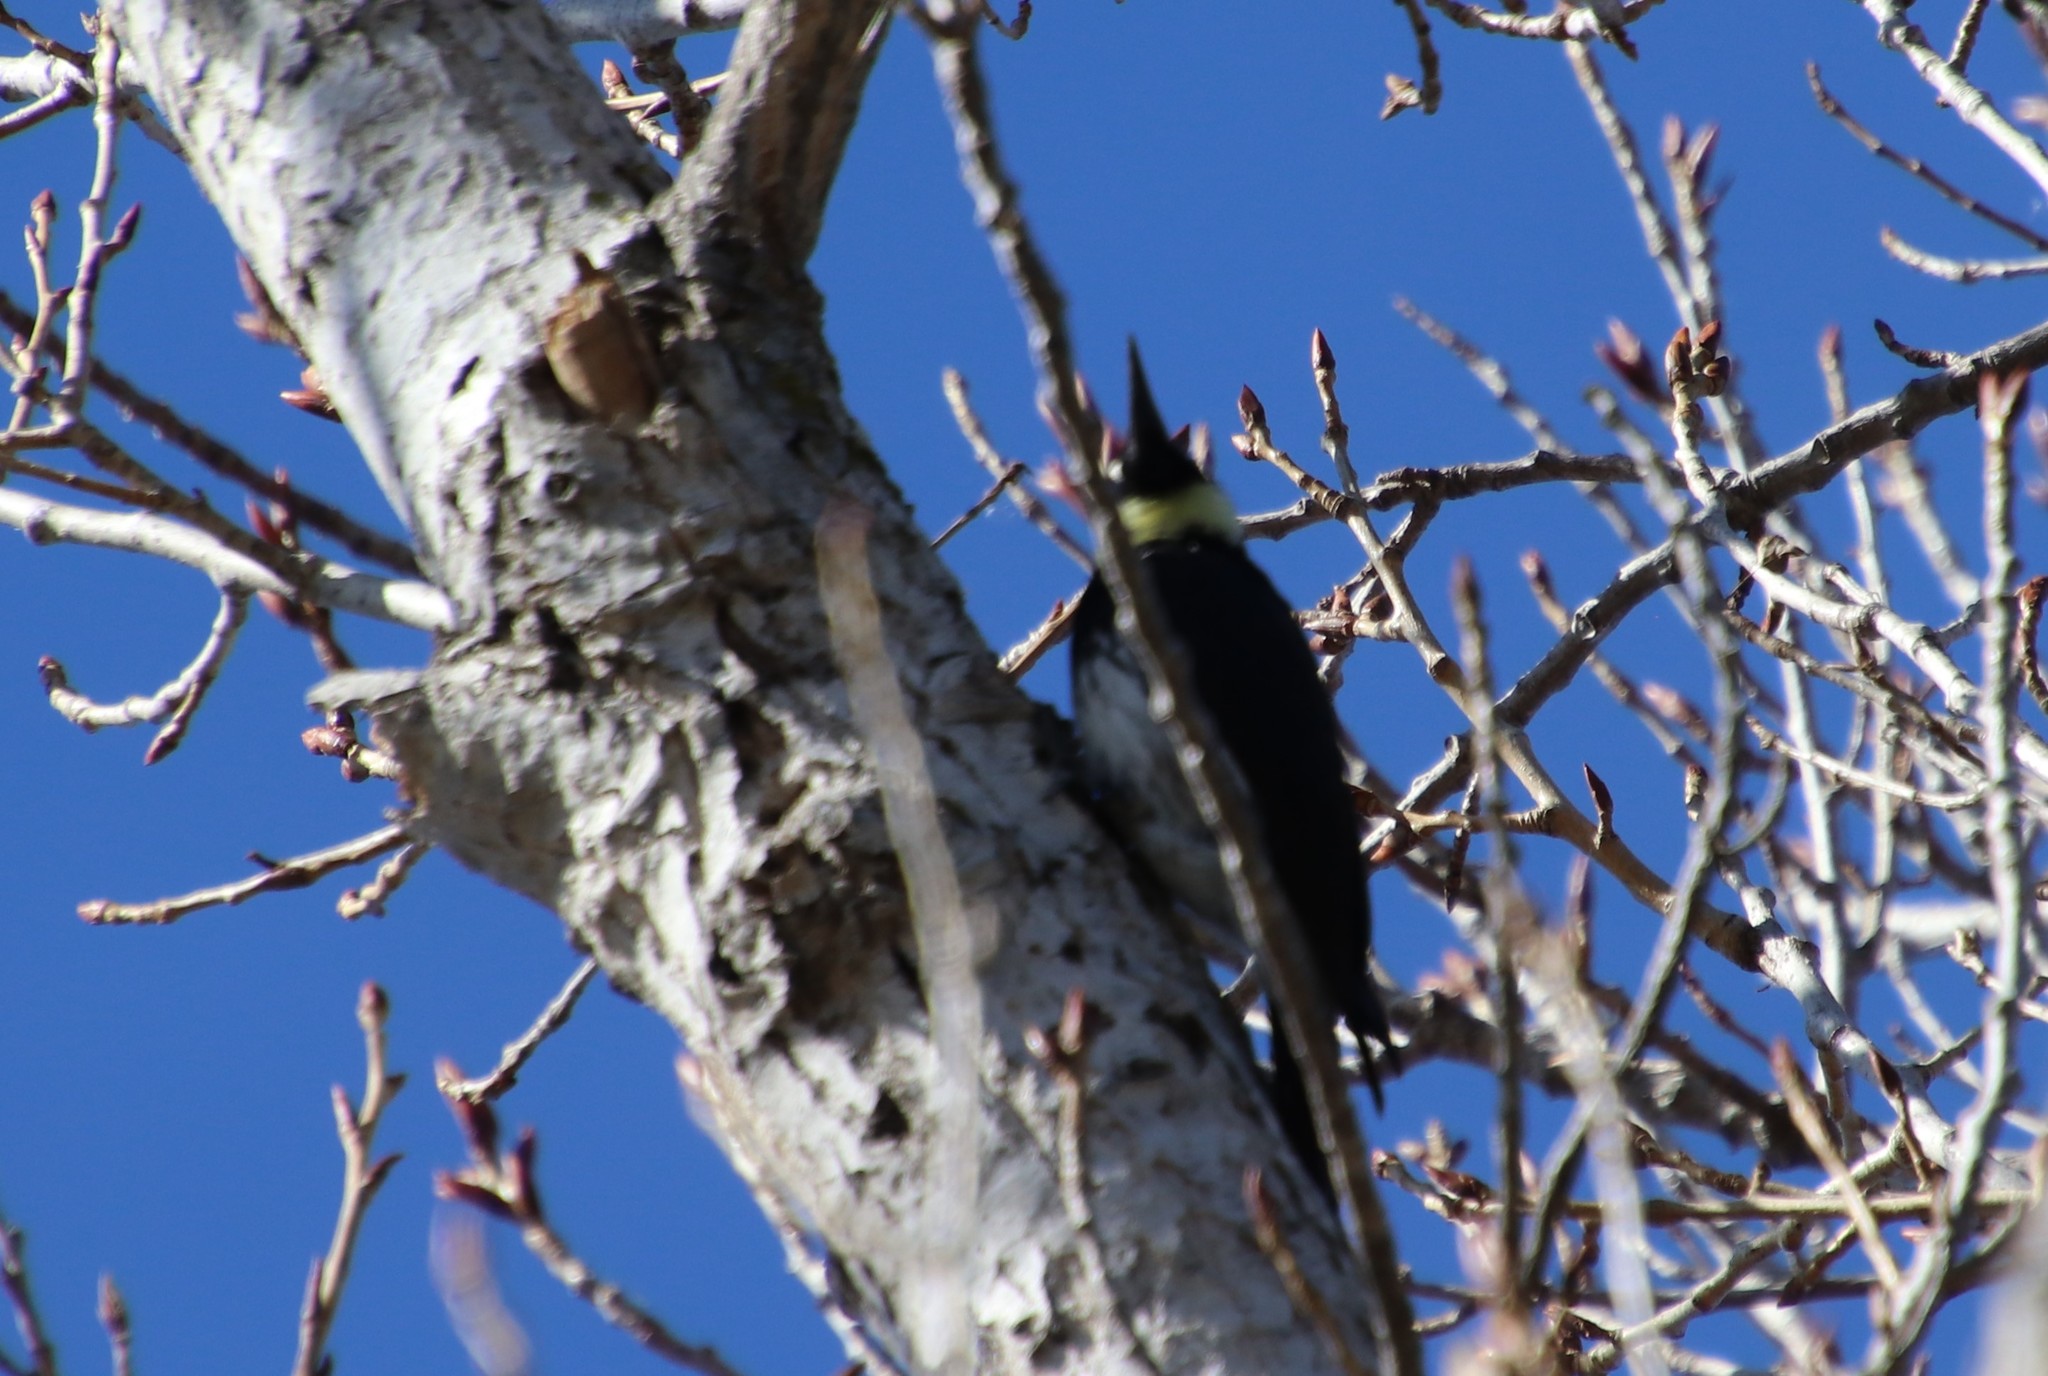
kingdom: Animalia
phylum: Chordata
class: Aves
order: Piciformes
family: Picidae
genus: Melanerpes
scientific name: Melanerpes formicivorus
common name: Acorn woodpecker
